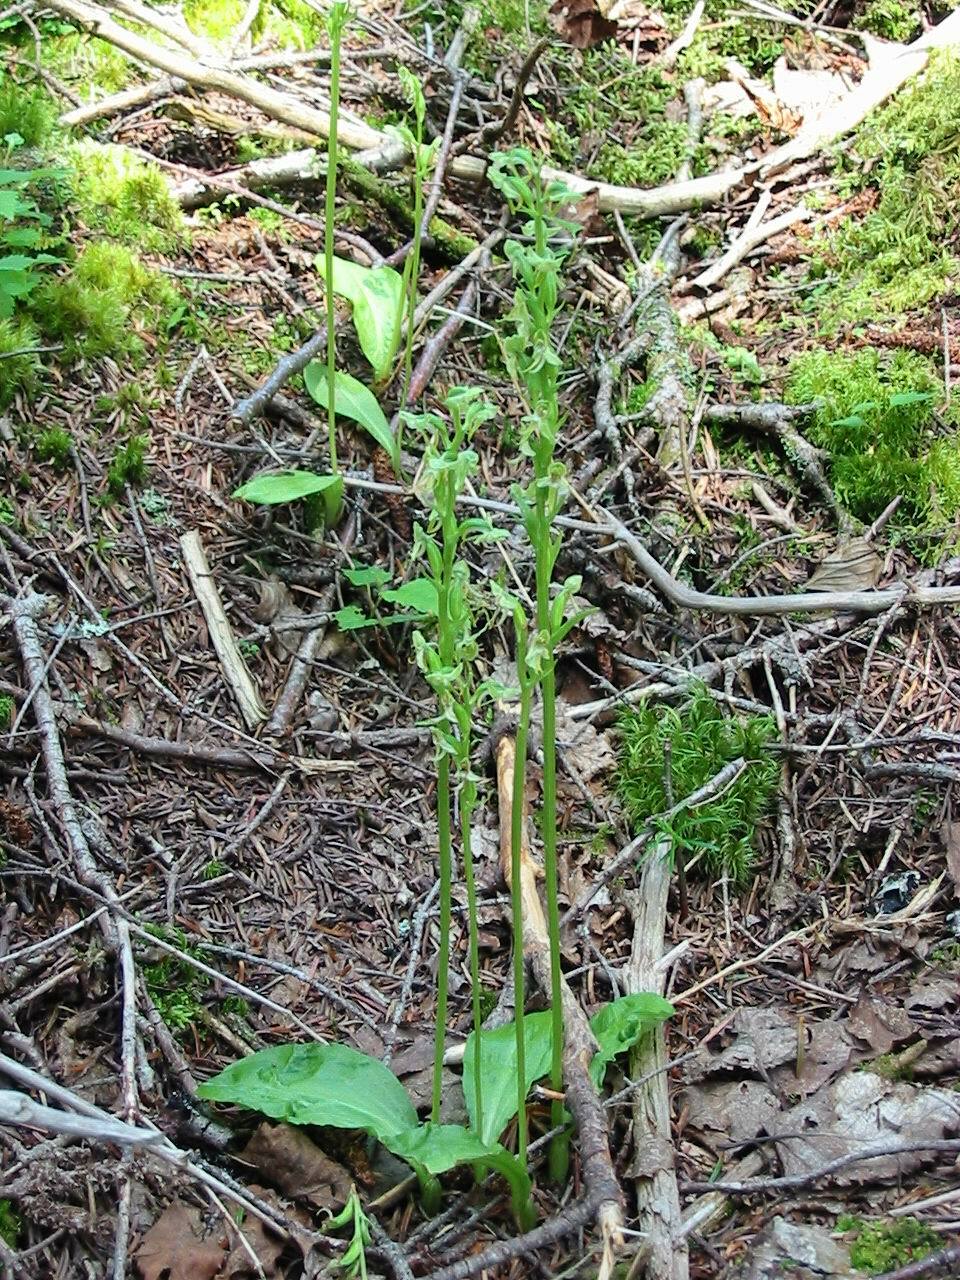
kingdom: Plantae
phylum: Tracheophyta
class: Liliopsida
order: Asparagales
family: Orchidaceae
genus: Platanthera
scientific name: Platanthera obtusata
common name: Blunt bog orchid
